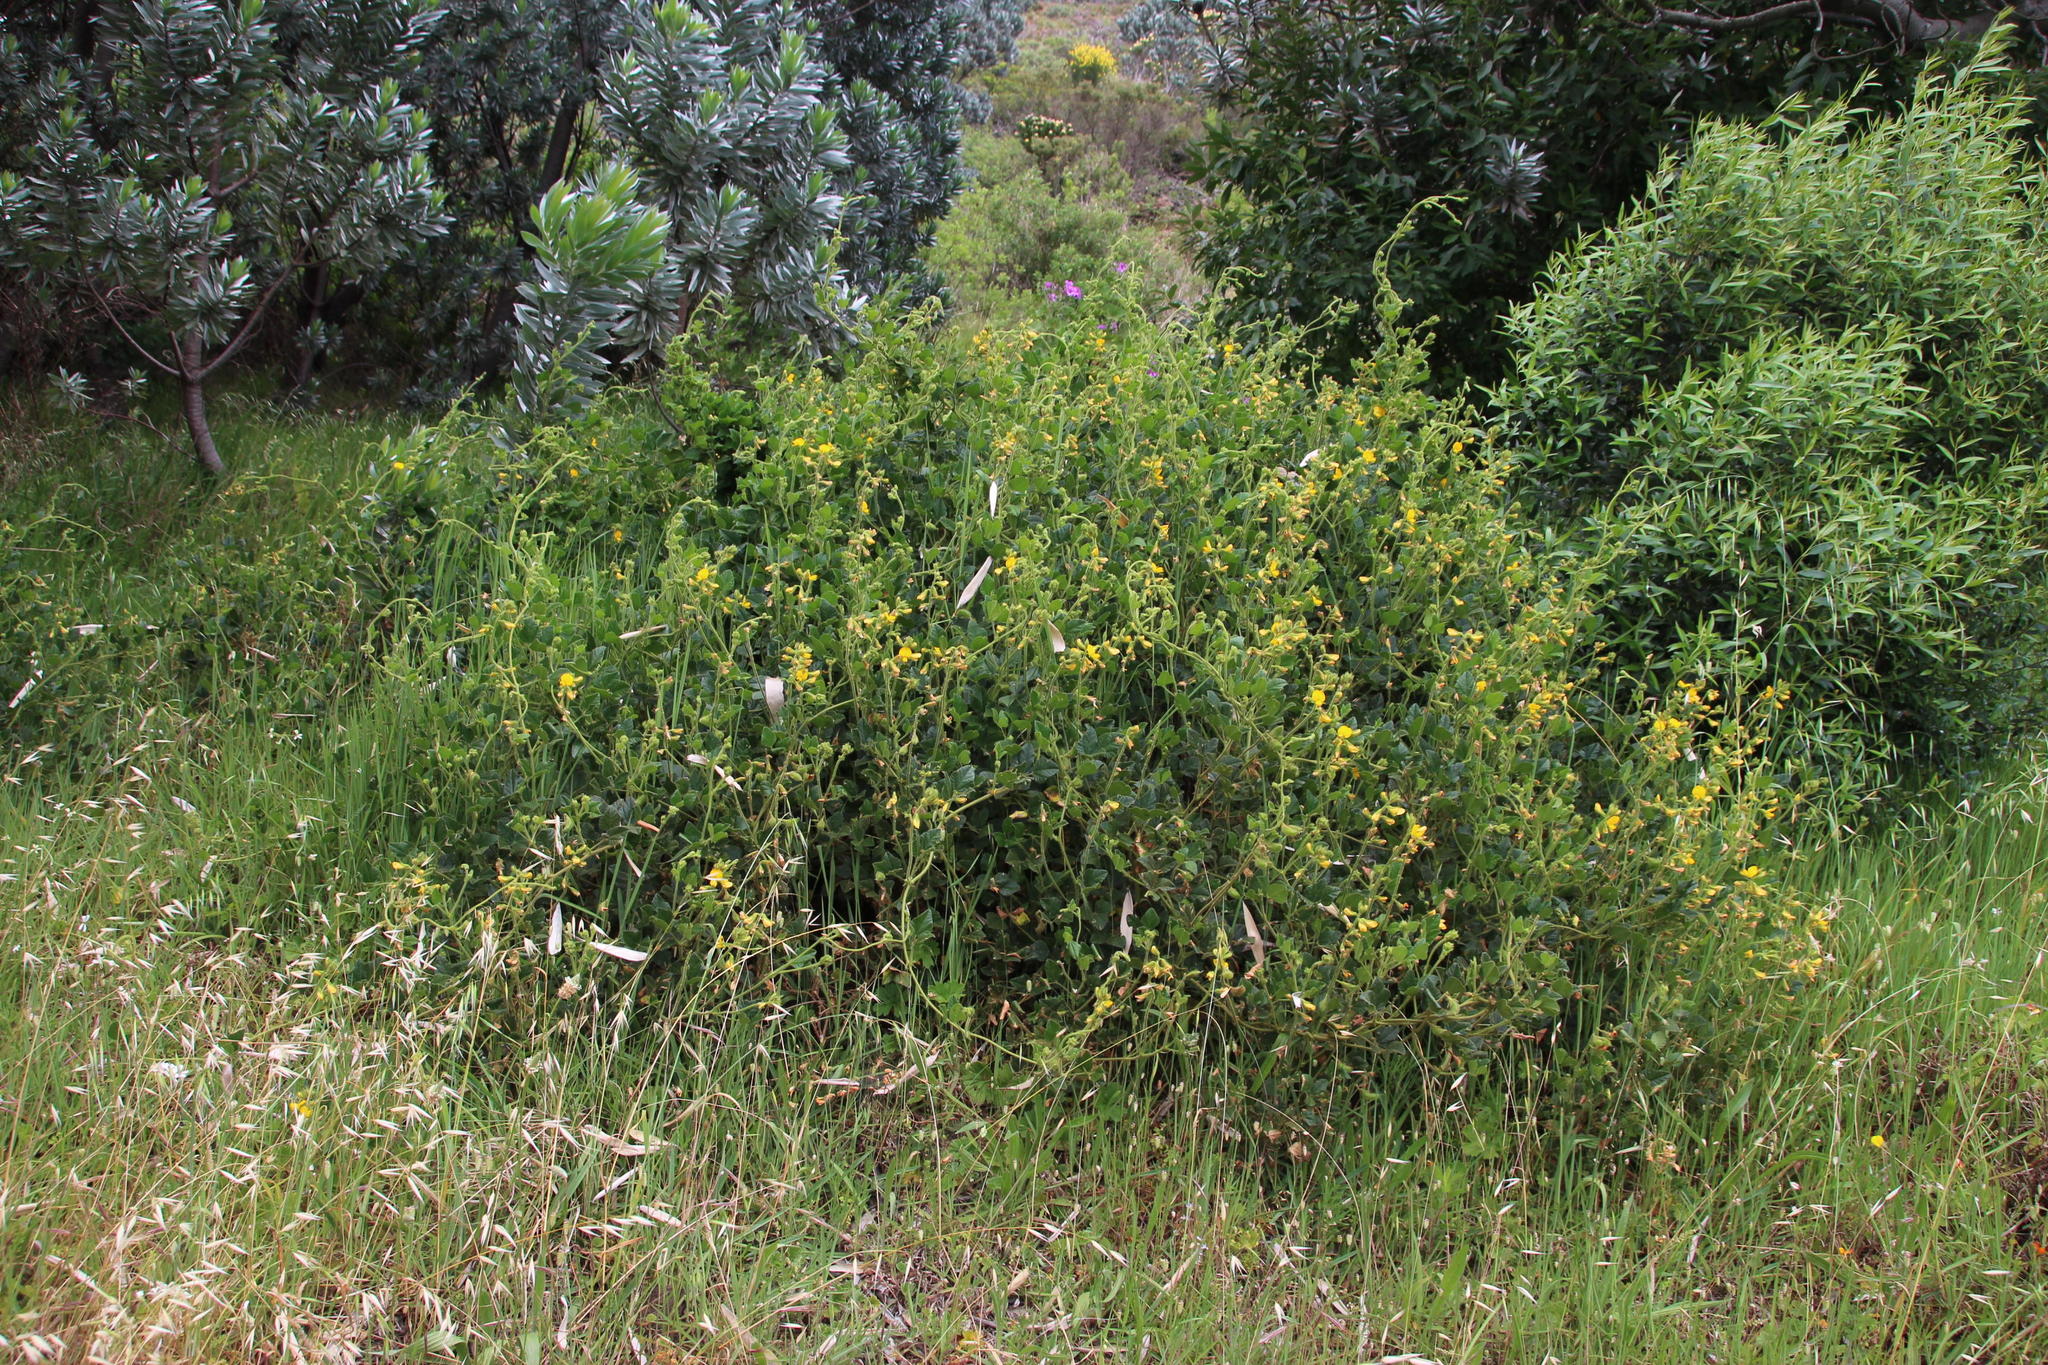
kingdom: Plantae
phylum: Tracheophyta
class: Magnoliopsida
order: Fabales
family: Fabaceae
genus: Bolusafra
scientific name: Bolusafra bituminosa
